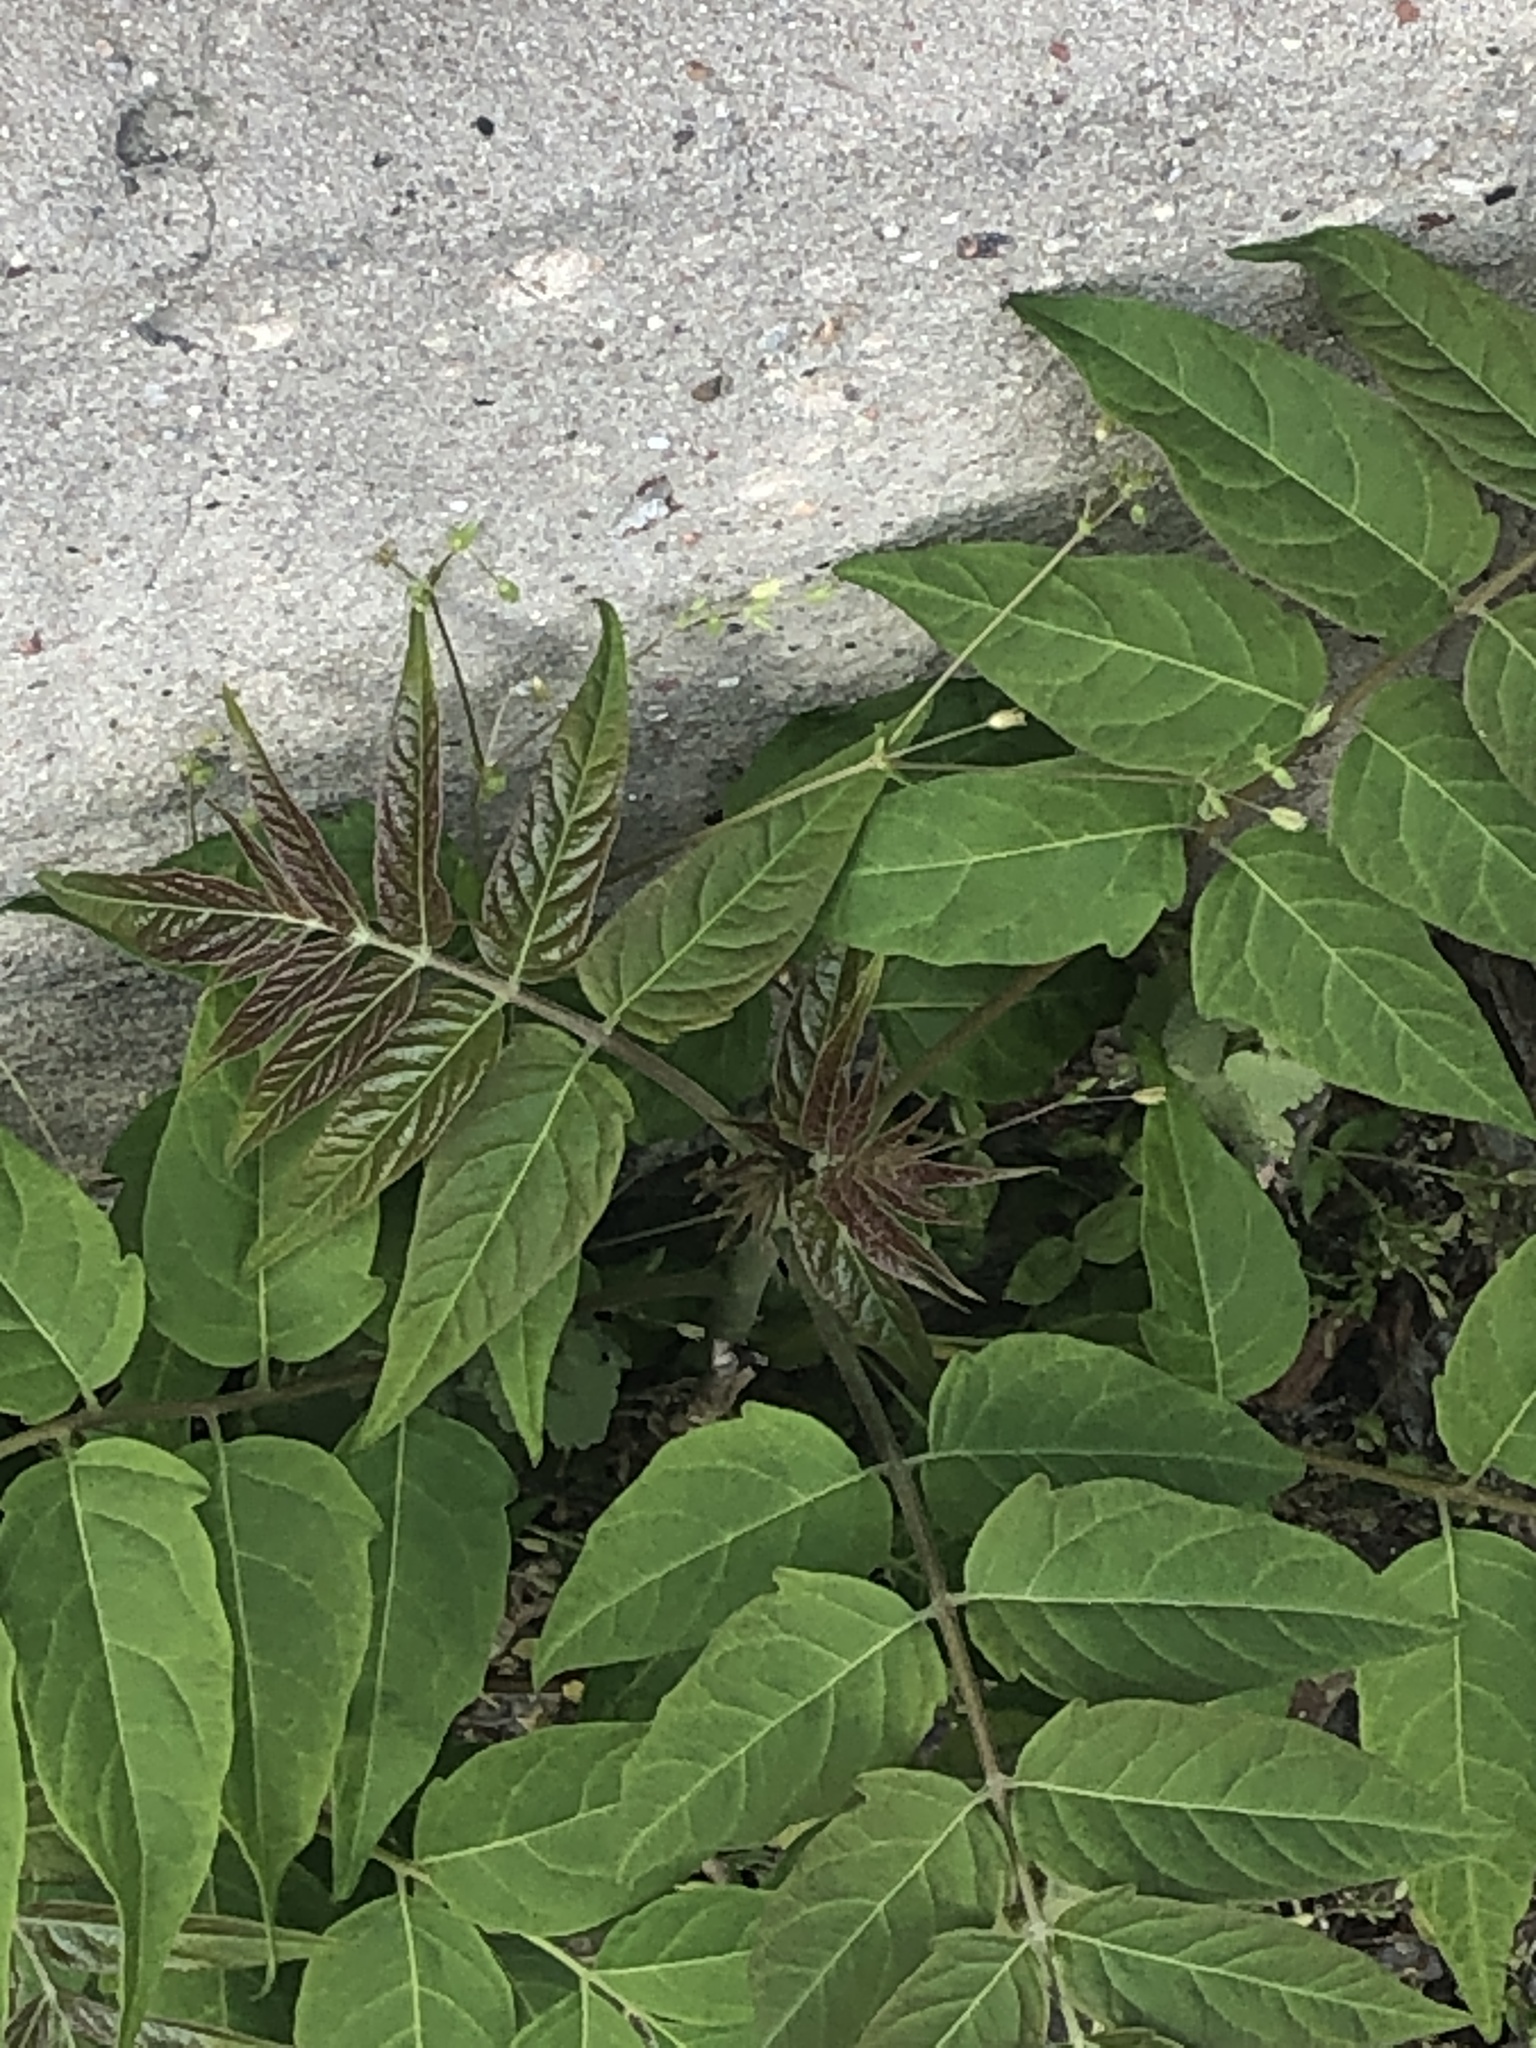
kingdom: Plantae
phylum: Tracheophyta
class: Magnoliopsida
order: Sapindales
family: Simaroubaceae
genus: Ailanthus
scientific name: Ailanthus altissima
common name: Tree-of-heaven
